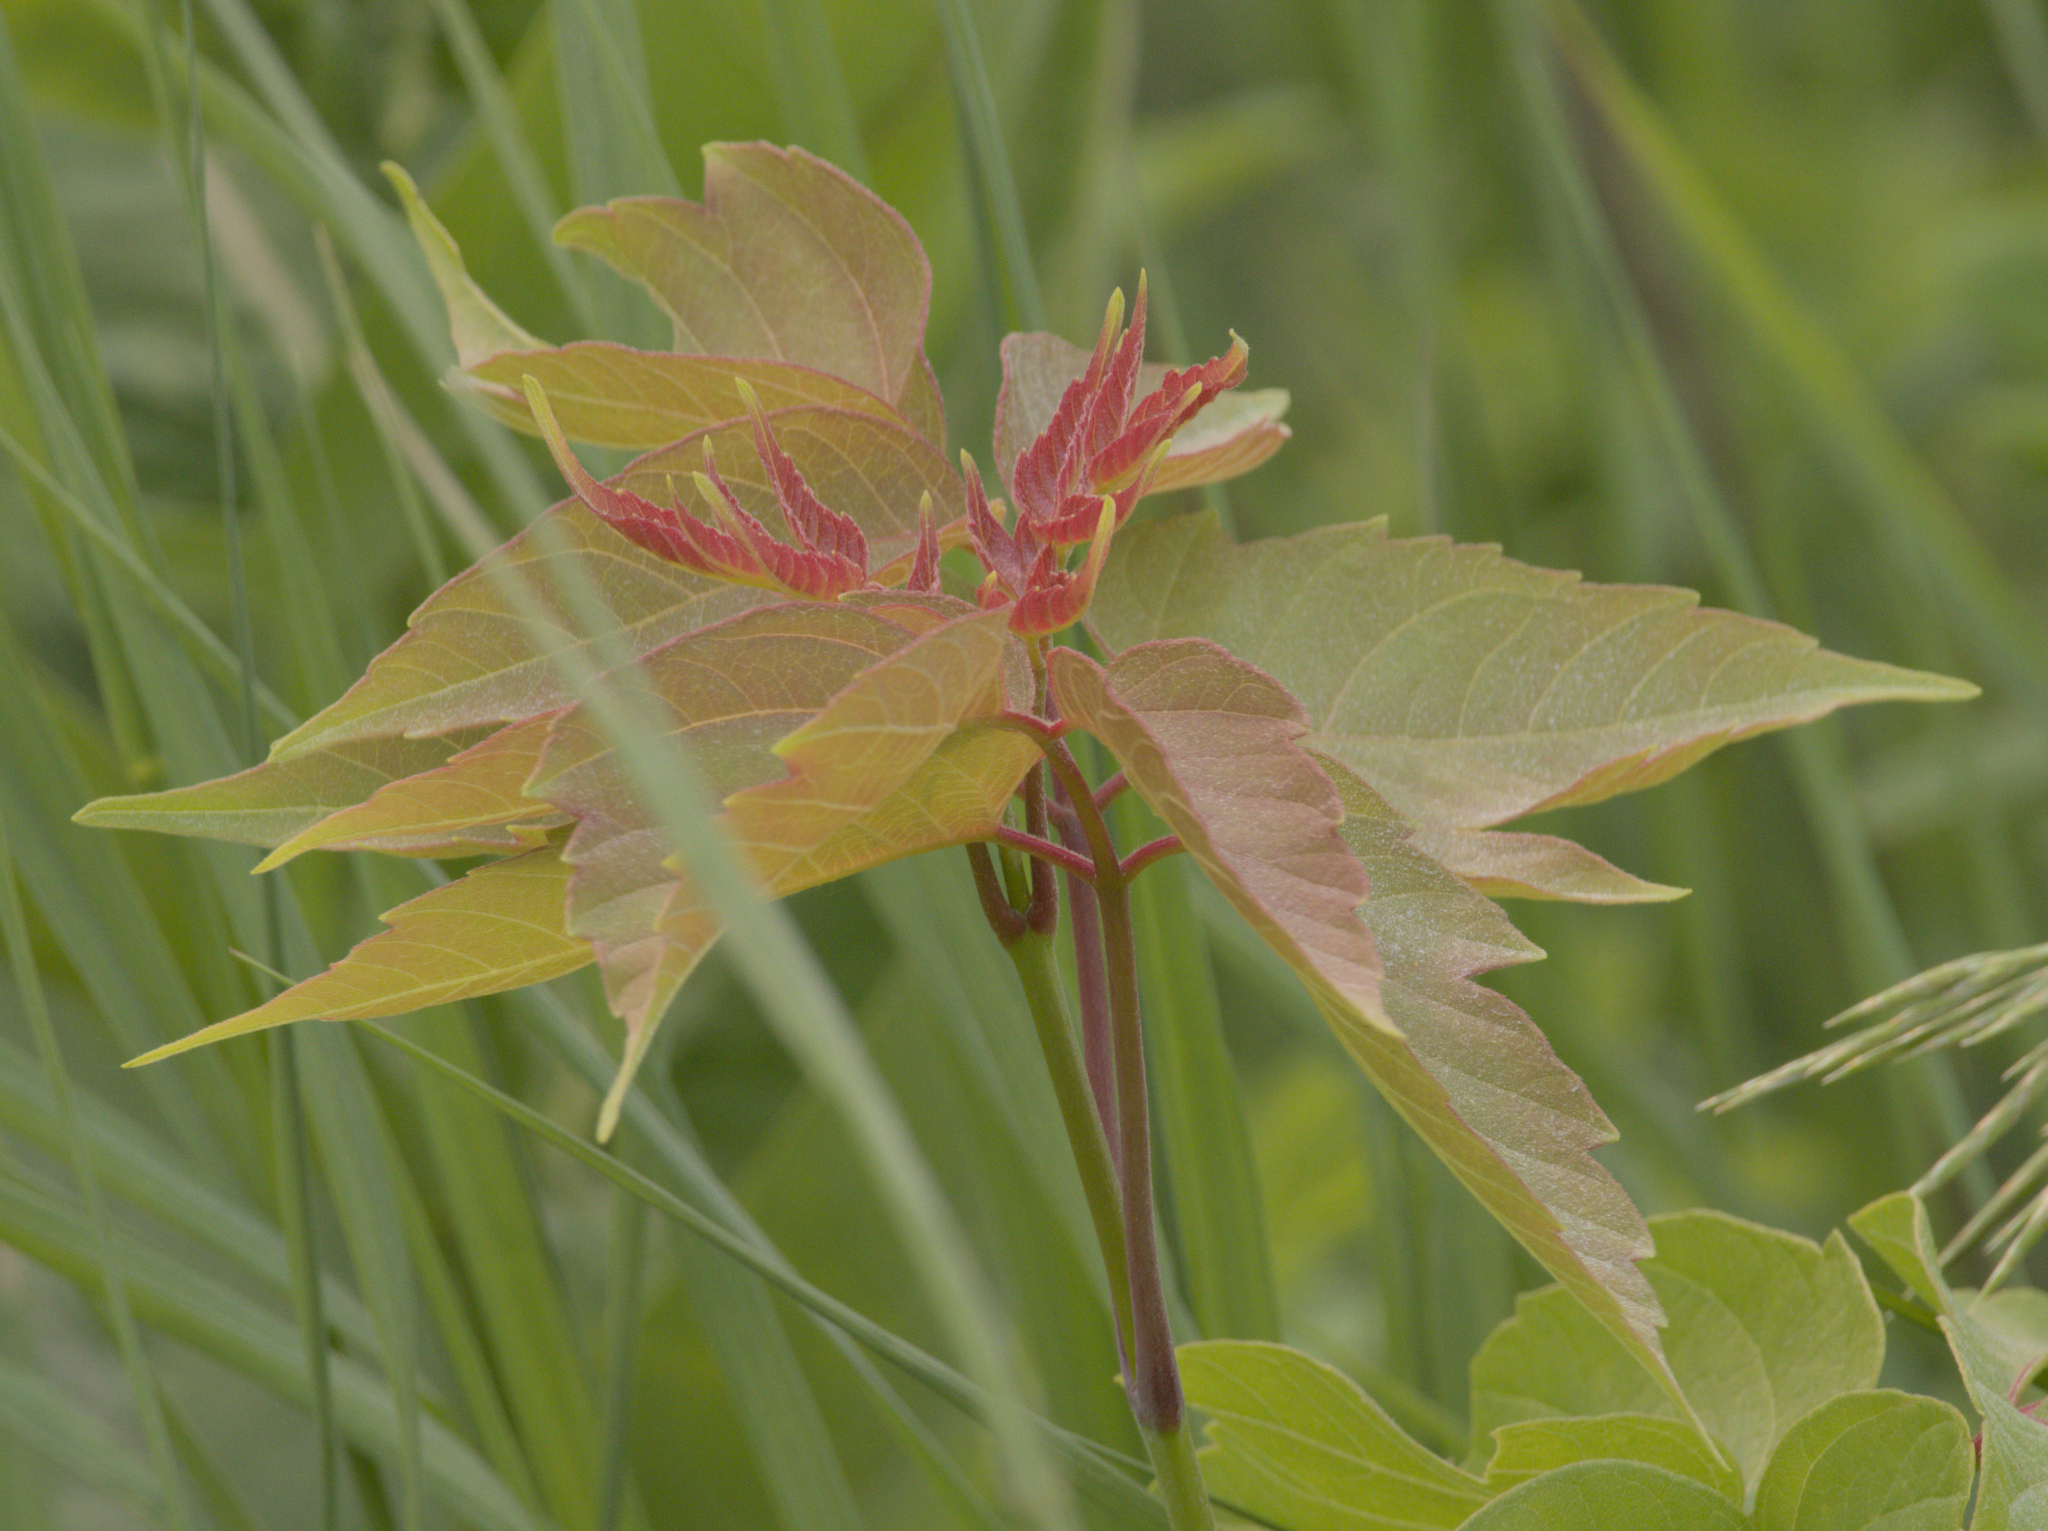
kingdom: Plantae
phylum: Tracheophyta
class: Magnoliopsida
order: Sapindales
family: Sapindaceae
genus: Acer
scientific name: Acer negundo
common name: Ashleaf maple
